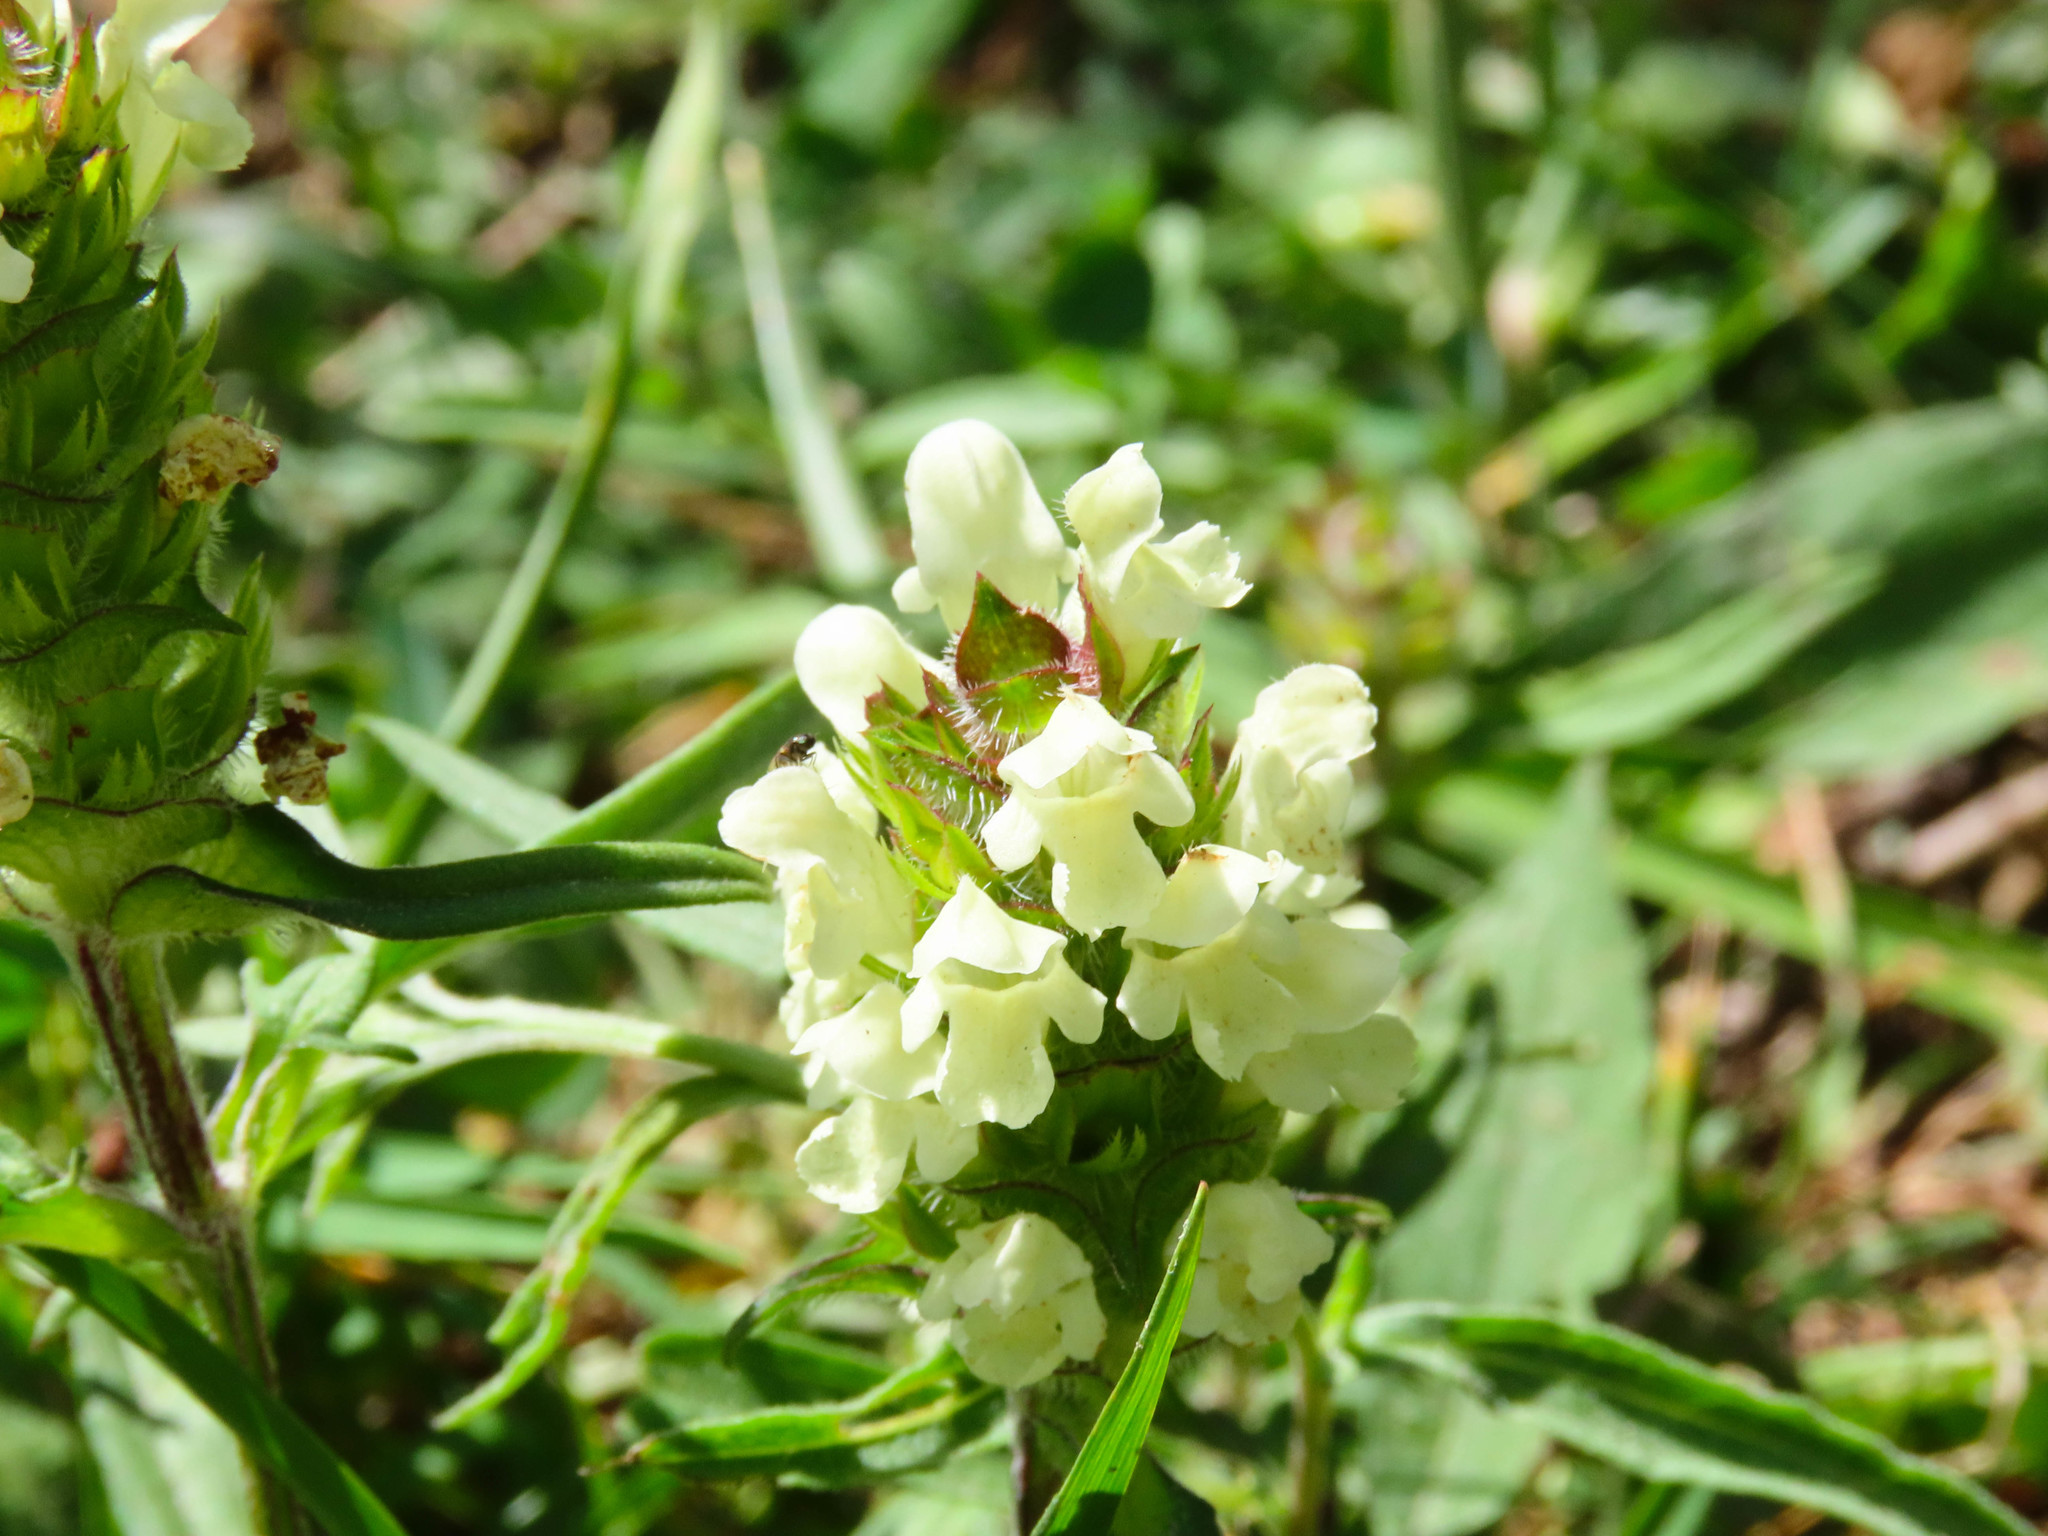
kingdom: Plantae
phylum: Tracheophyta
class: Magnoliopsida
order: Lamiales
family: Lamiaceae
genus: Prunella
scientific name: Prunella laciniata
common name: Cut-leaved selfheal
